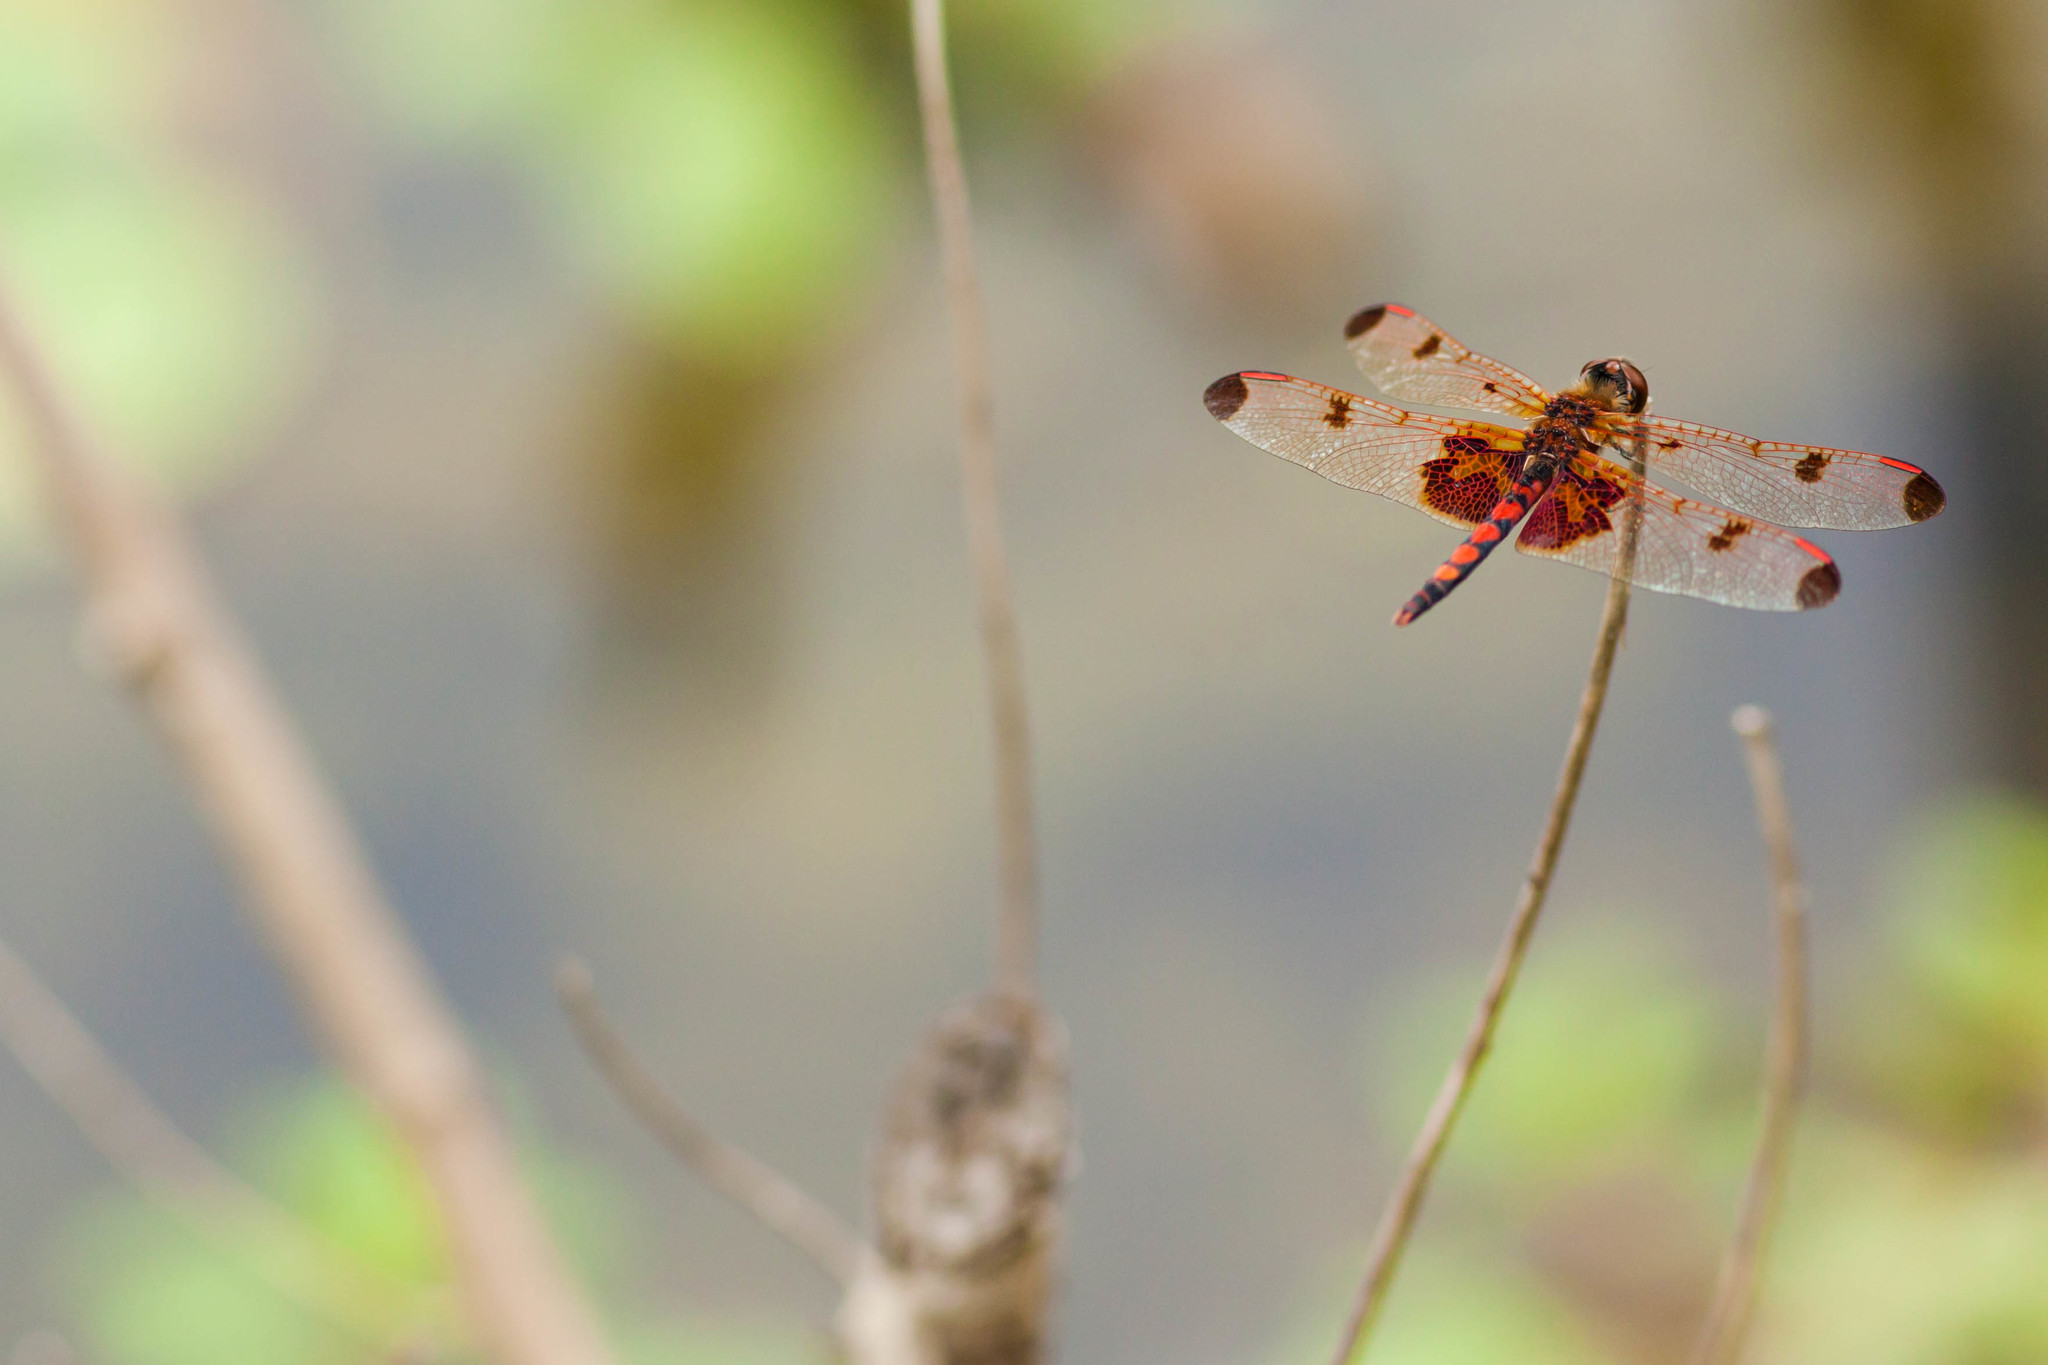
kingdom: Animalia
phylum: Arthropoda
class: Insecta
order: Odonata
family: Libellulidae
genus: Celithemis
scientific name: Celithemis elisa
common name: Calico pennant
